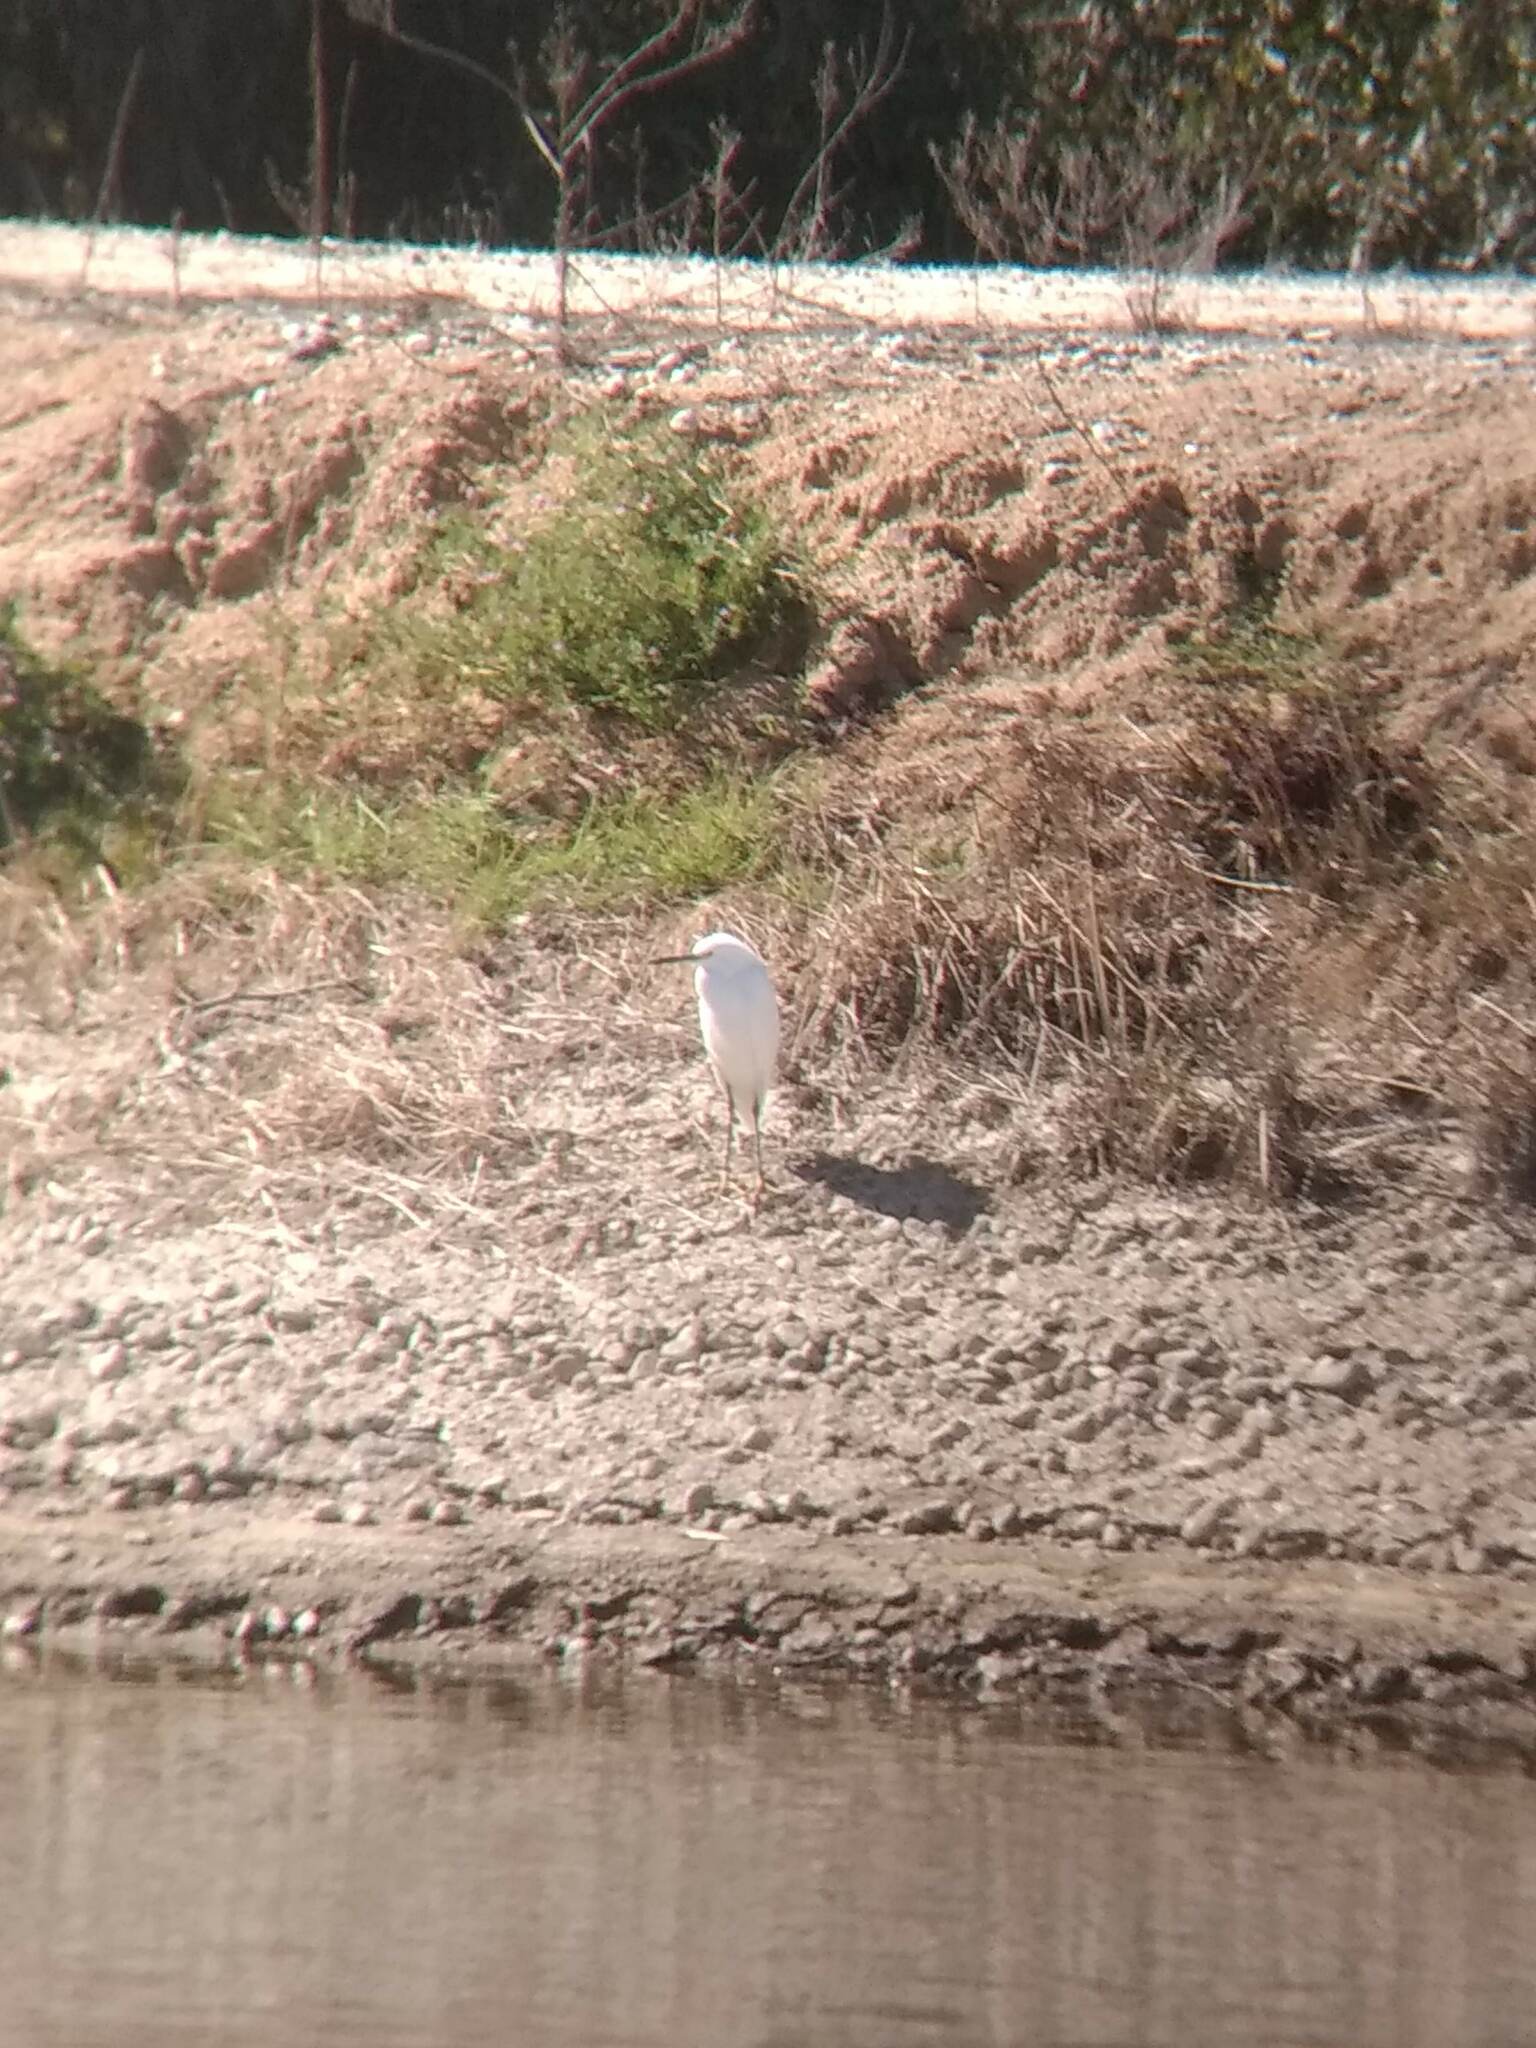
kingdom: Animalia
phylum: Chordata
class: Aves
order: Pelecaniformes
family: Ardeidae
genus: Egretta
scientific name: Egretta thula
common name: Snowy egret
